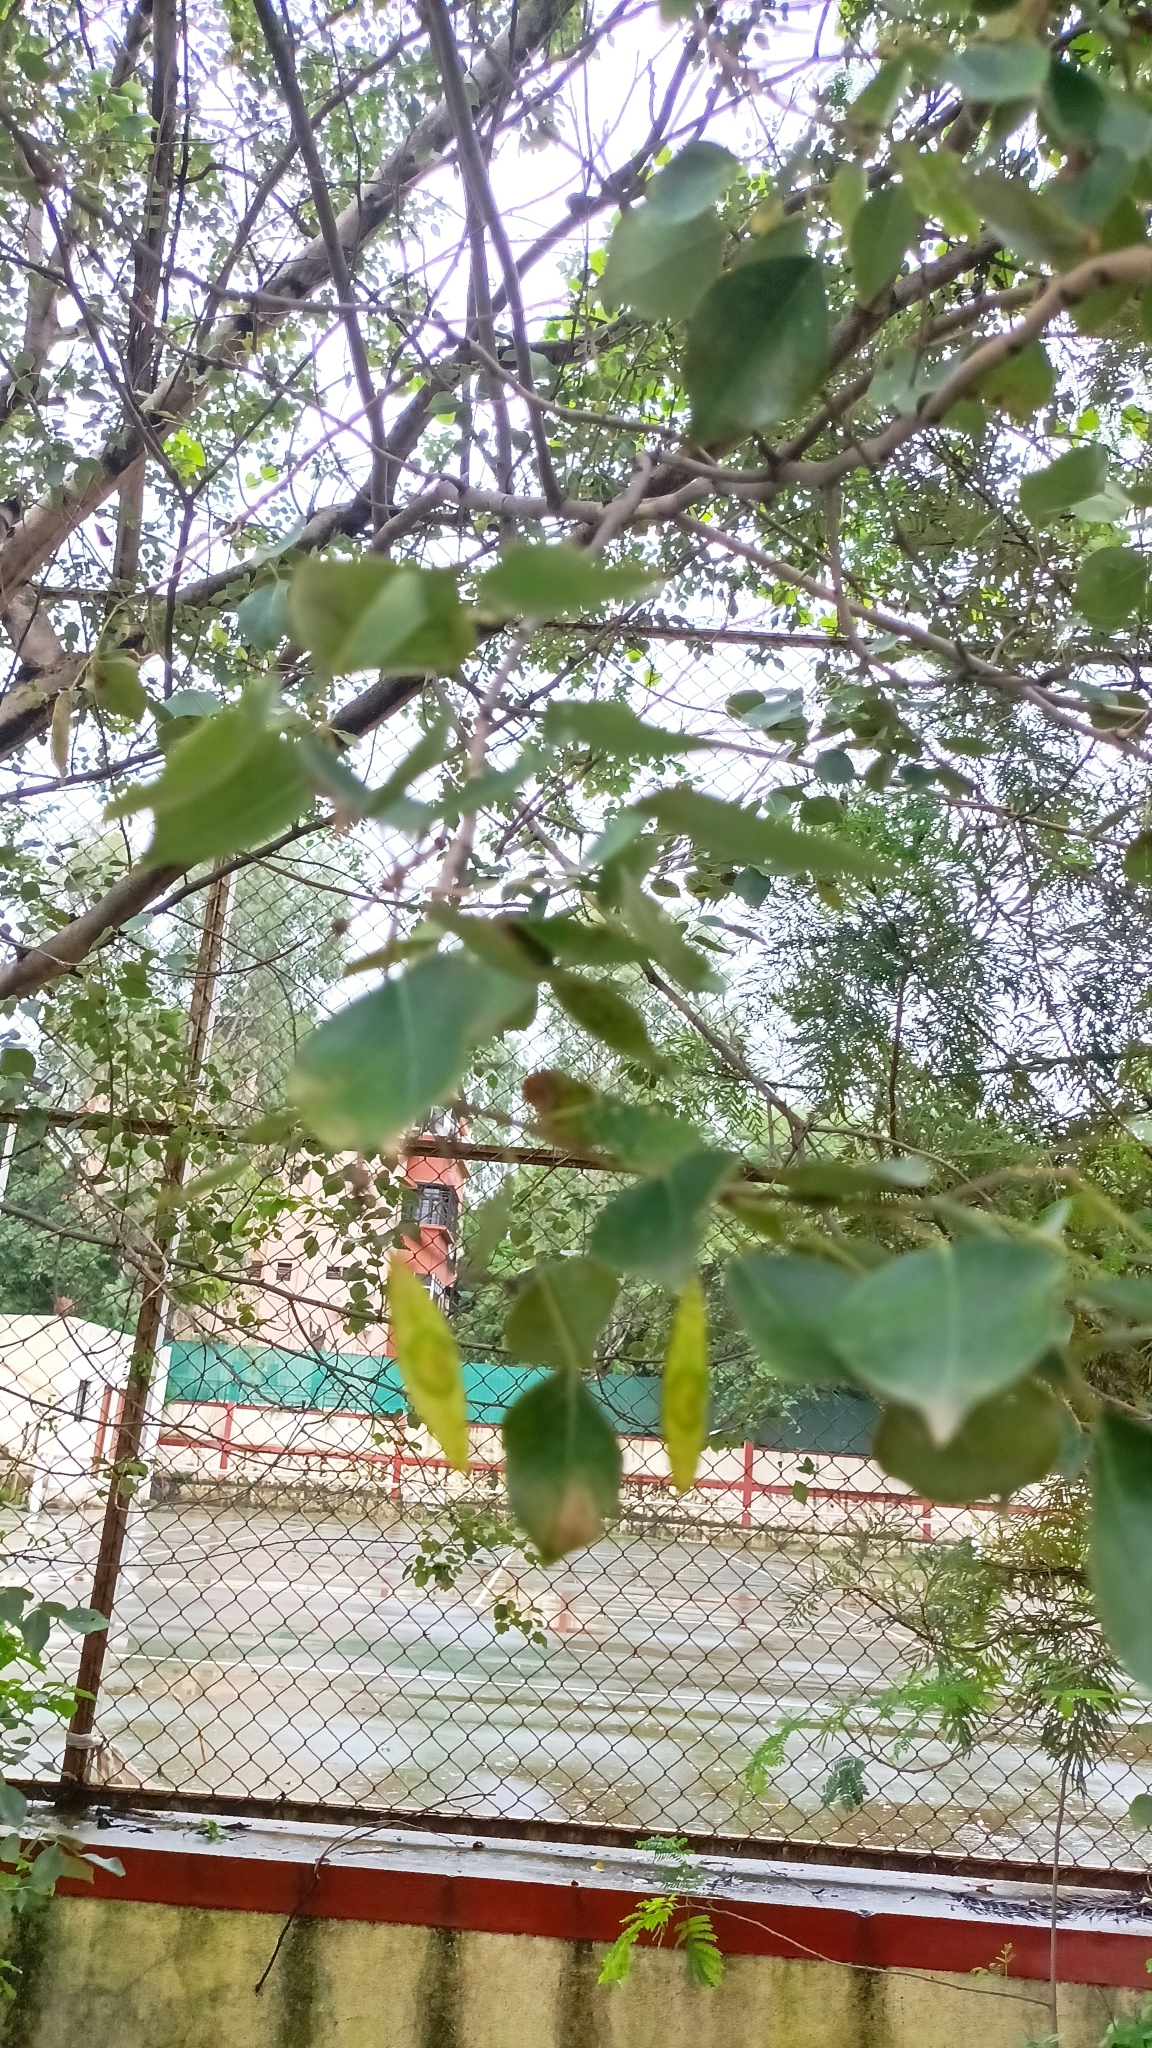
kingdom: Plantae
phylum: Tracheophyta
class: Magnoliopsida
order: Fabales
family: Fabaceae
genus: Dalbergia
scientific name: Dalbergia sissoo
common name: Indian rosewood
